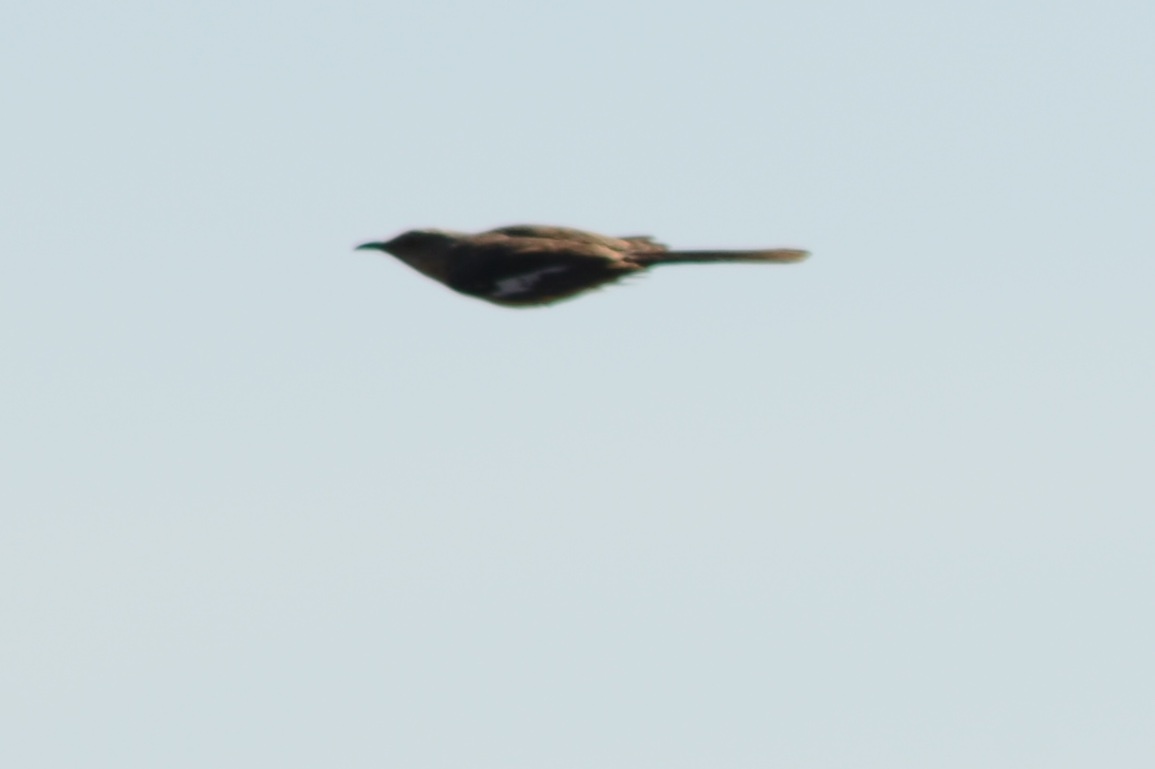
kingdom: Animalia
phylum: Chordata
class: Aves
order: Passeriformes
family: Mimidae
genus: Mimus
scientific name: Mimus polyglottos
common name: Northern mockingbird
